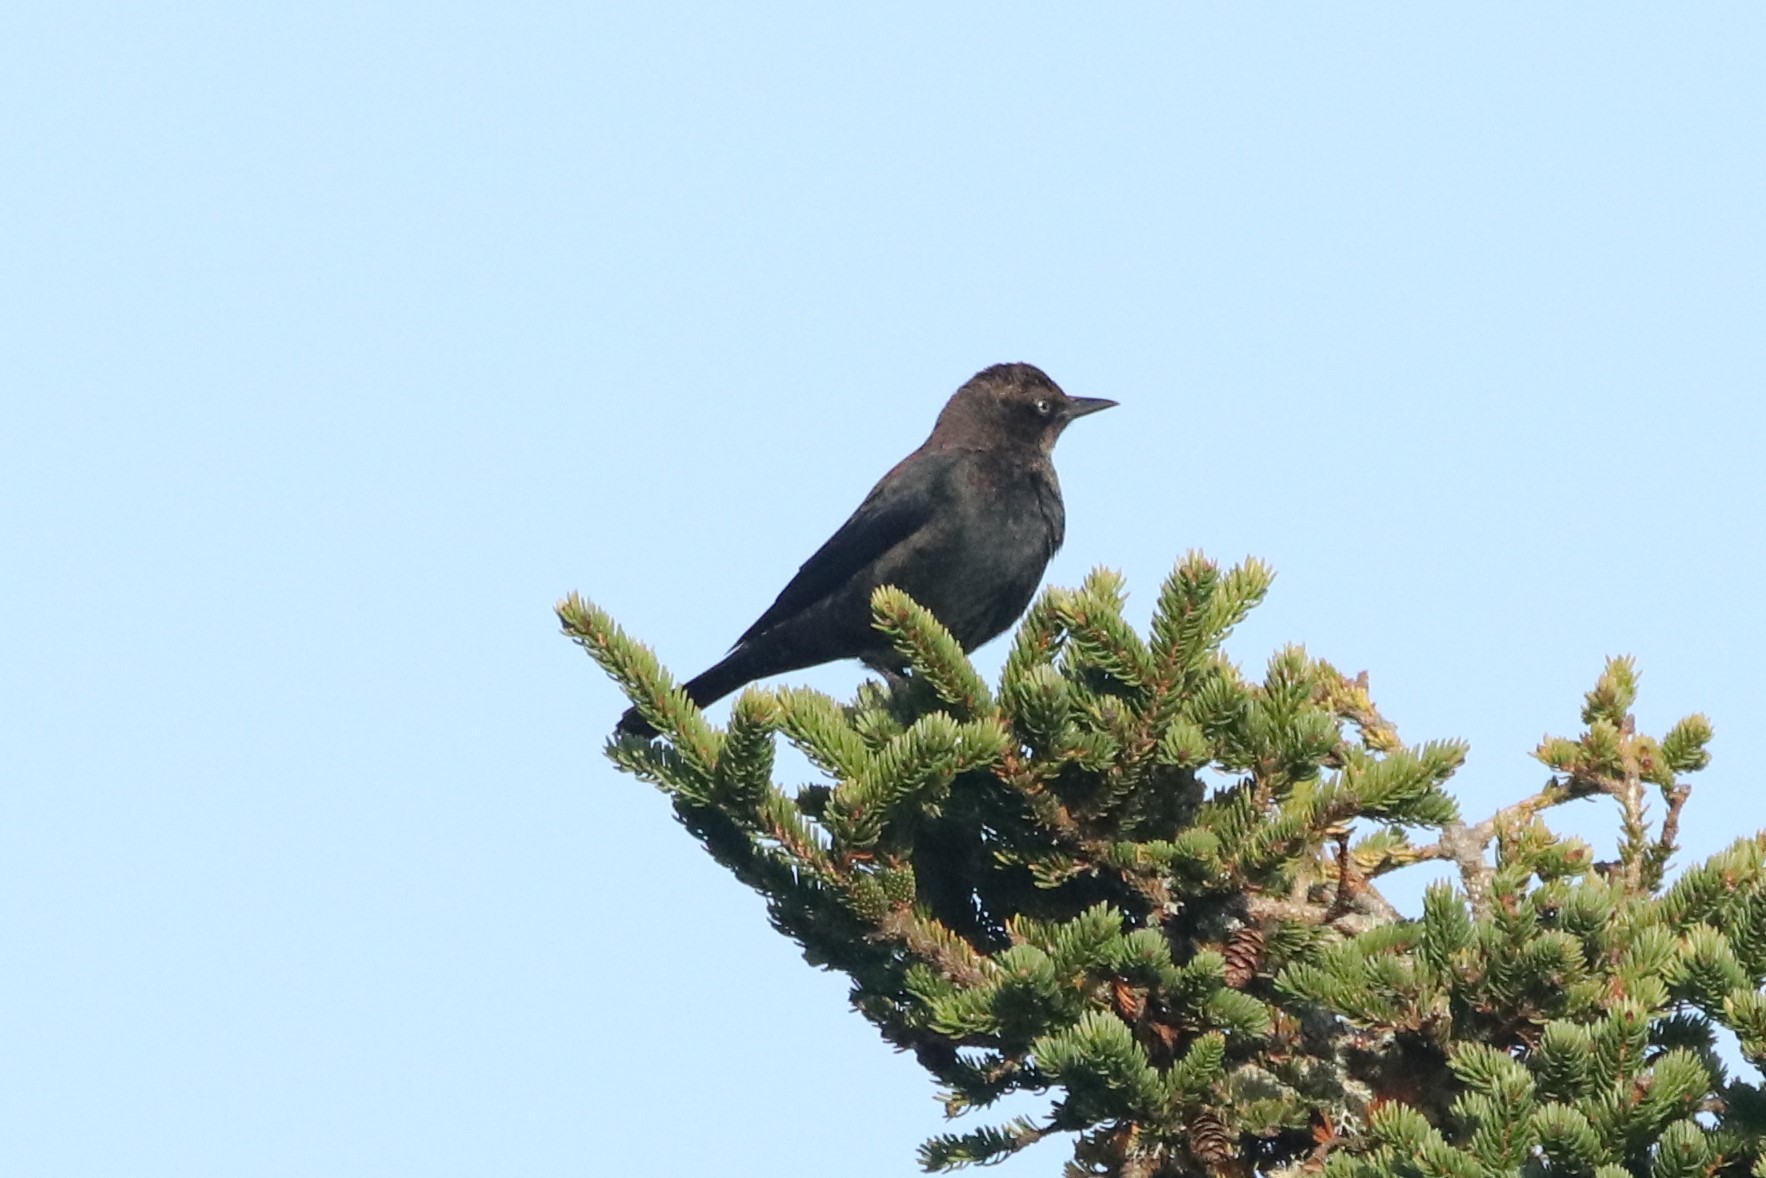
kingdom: Animalia
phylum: Chordata
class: Aves
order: Passeriformes
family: Icteridae
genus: Euphagus
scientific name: Euphagus carolinus
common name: Rusty blackbird
